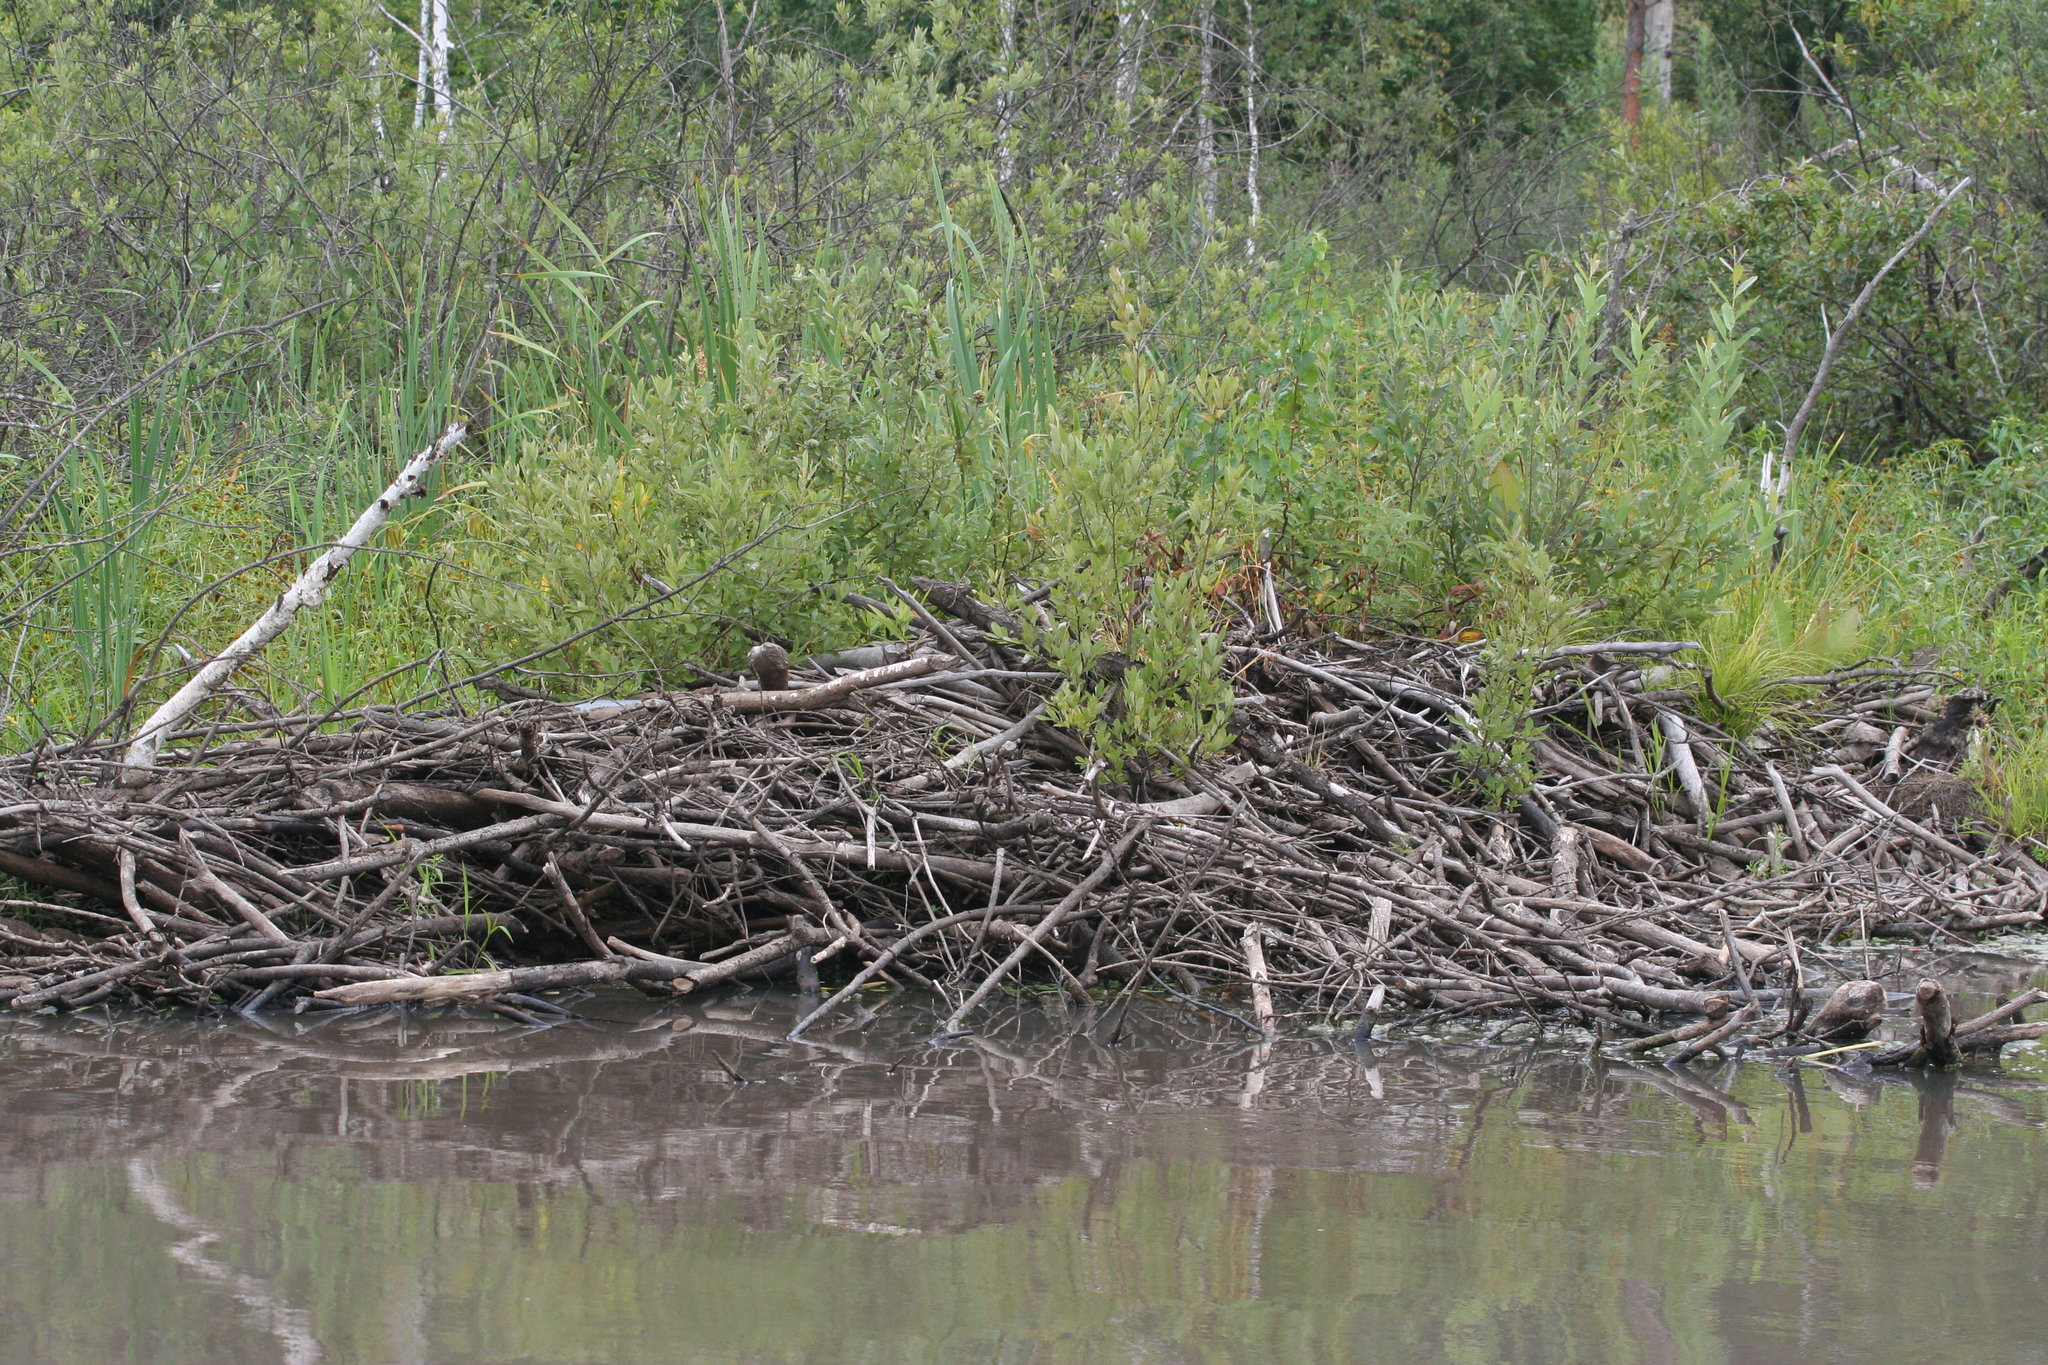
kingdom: Animalia
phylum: Chordata
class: Mammalia
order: Rodentia
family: Castoridae
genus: Castor
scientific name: Castor fiber
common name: Eurasian beaver
